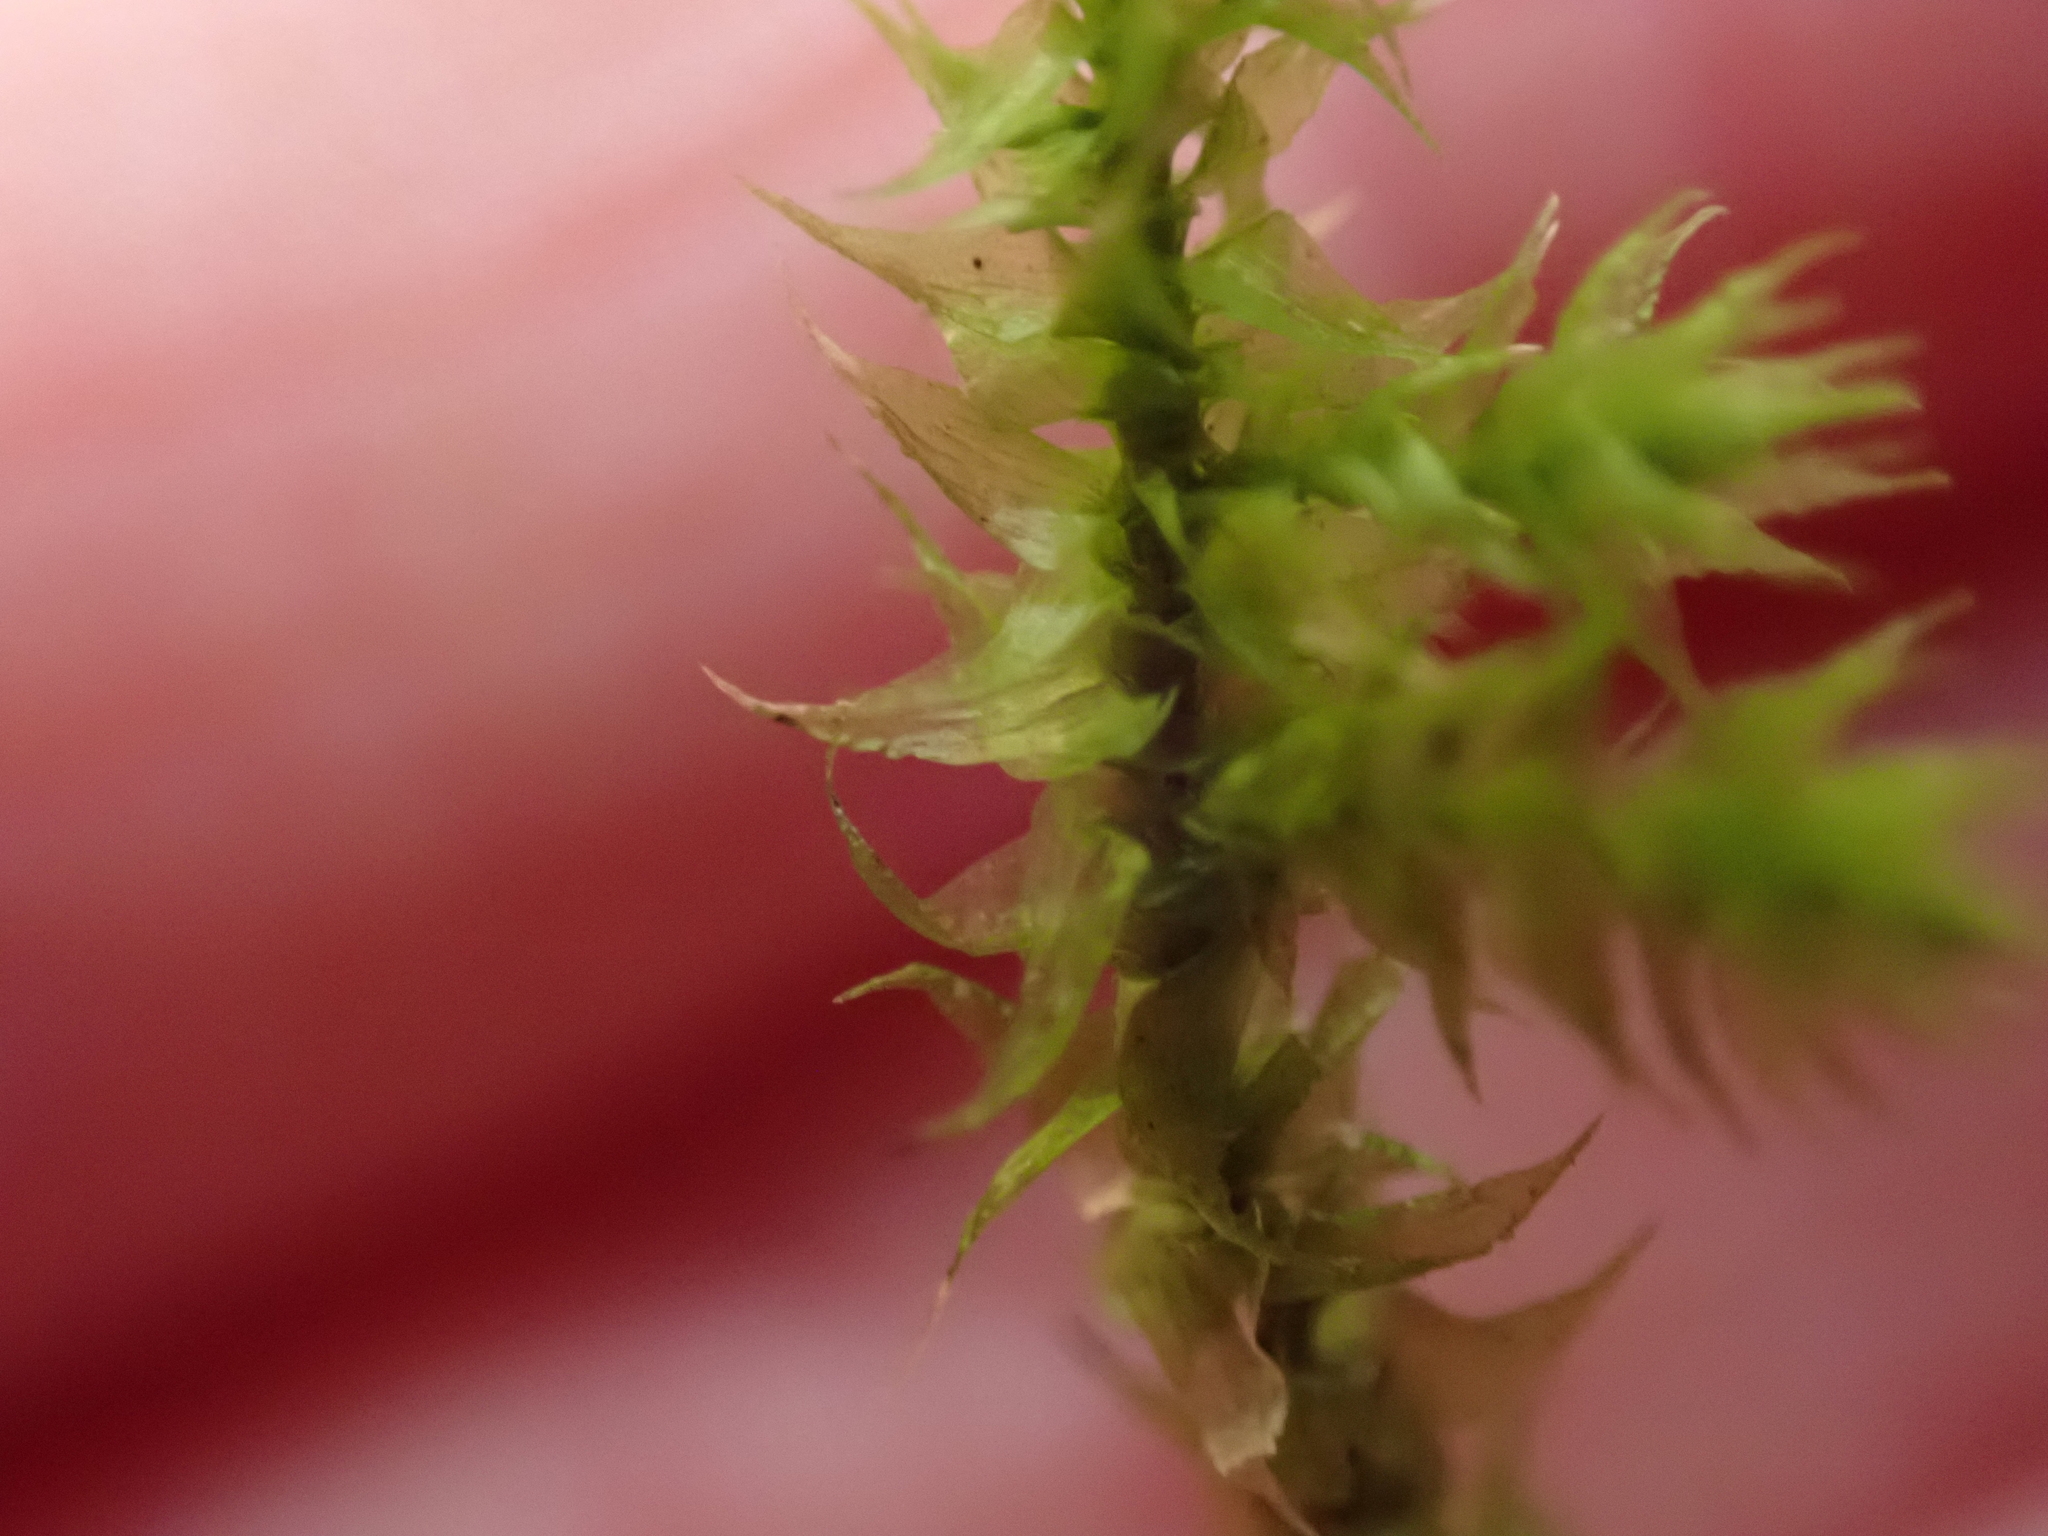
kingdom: Plantae
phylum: Bryophyta
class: Bryopsida
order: Hypnales
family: Hylocomiaceae
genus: Hylocomiadelphus
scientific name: Hylocomiadelphus triquetrus
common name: Rough goose neck moss
